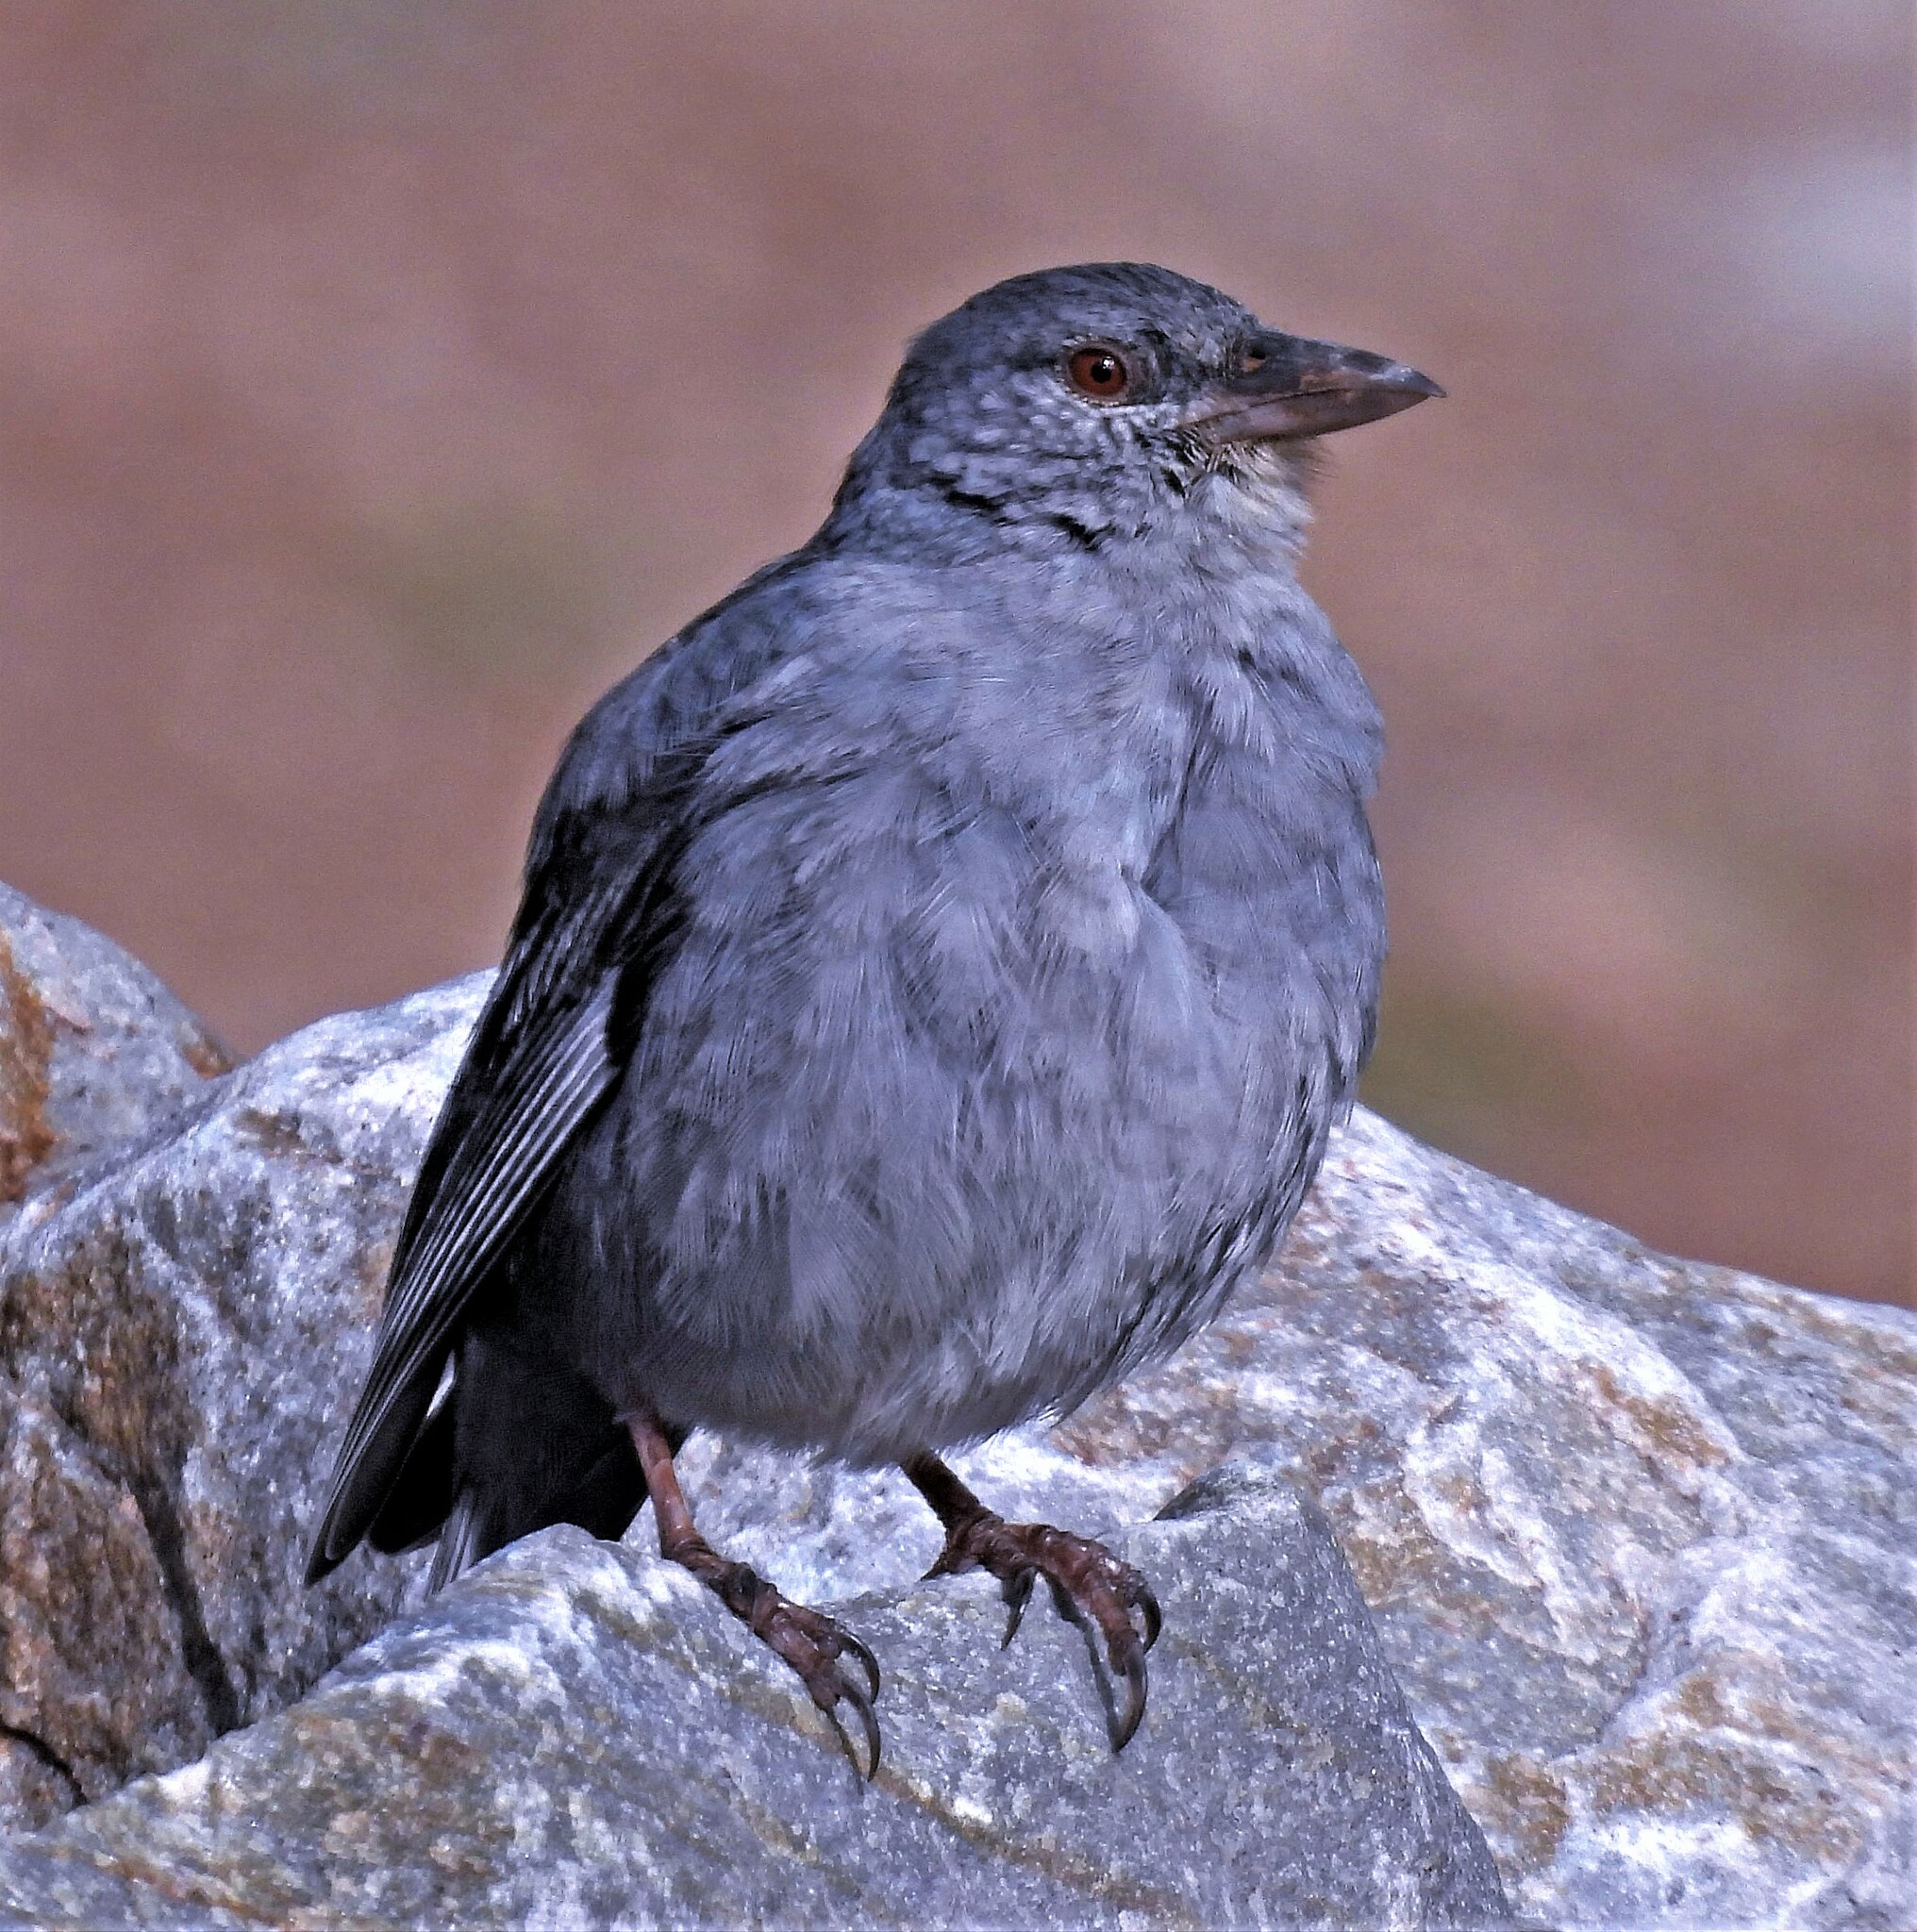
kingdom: Animalia
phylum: Chordata
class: Aves
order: Passeriformes
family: Thraupidae
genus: Idiopsar
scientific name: Idiopsar brachyurus
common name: Short-tailed finch
